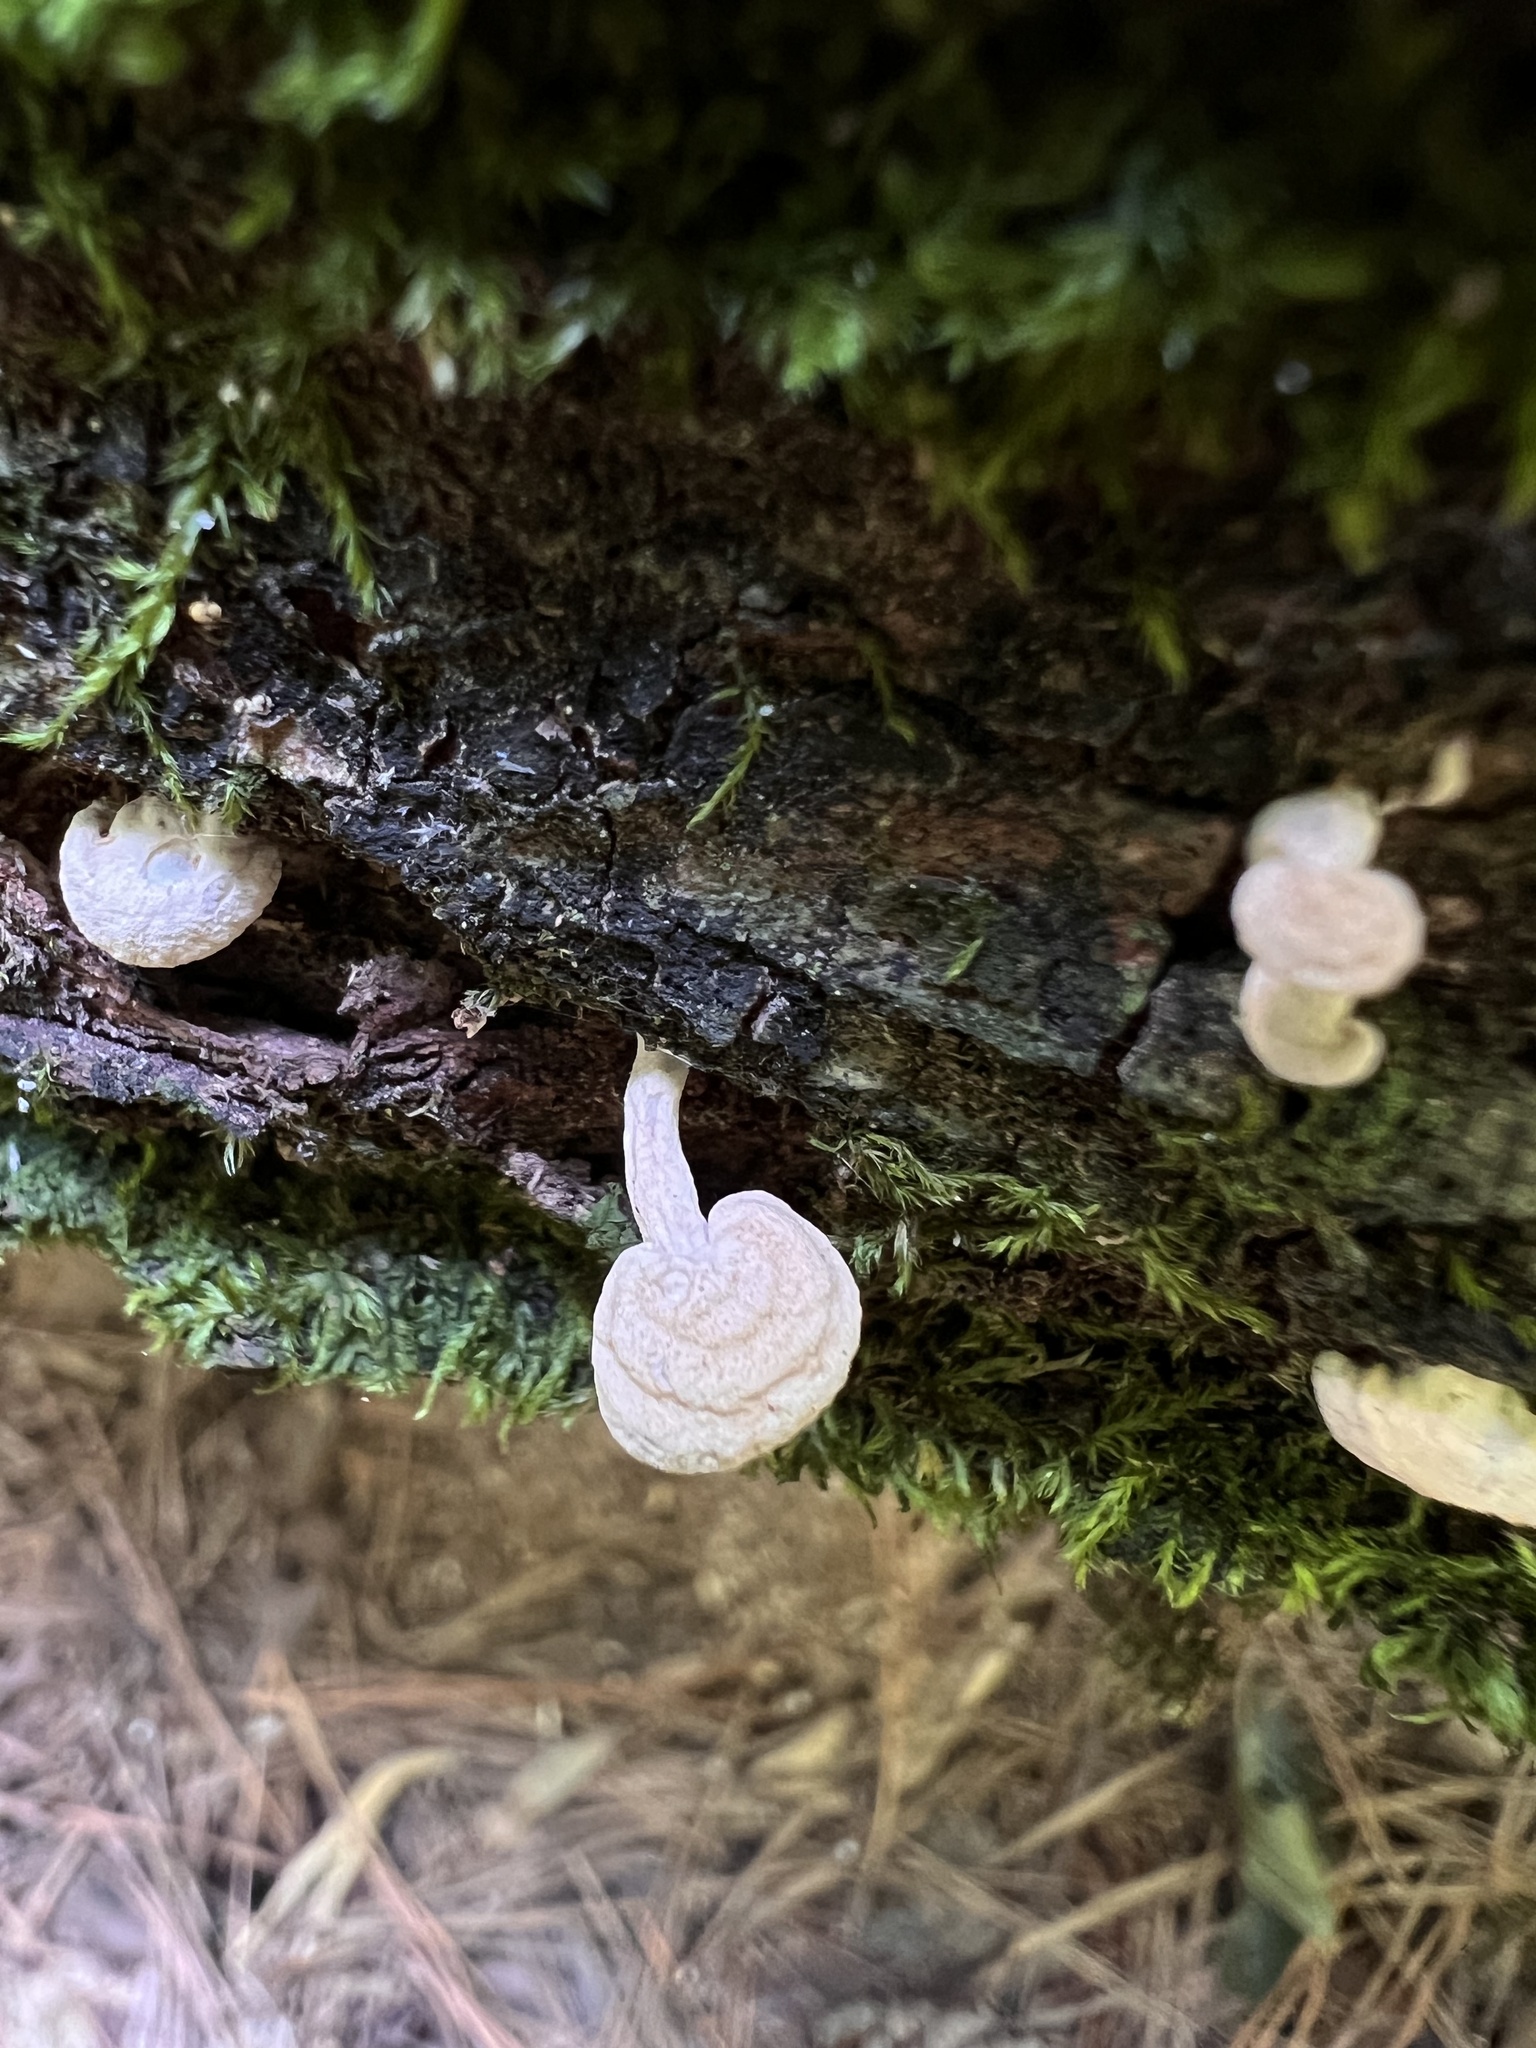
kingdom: Fungi
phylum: Basidiomycota
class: Agaricomycetes
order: Agaricales
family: Mycenaceae
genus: Panellus
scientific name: Panellus pusillus
